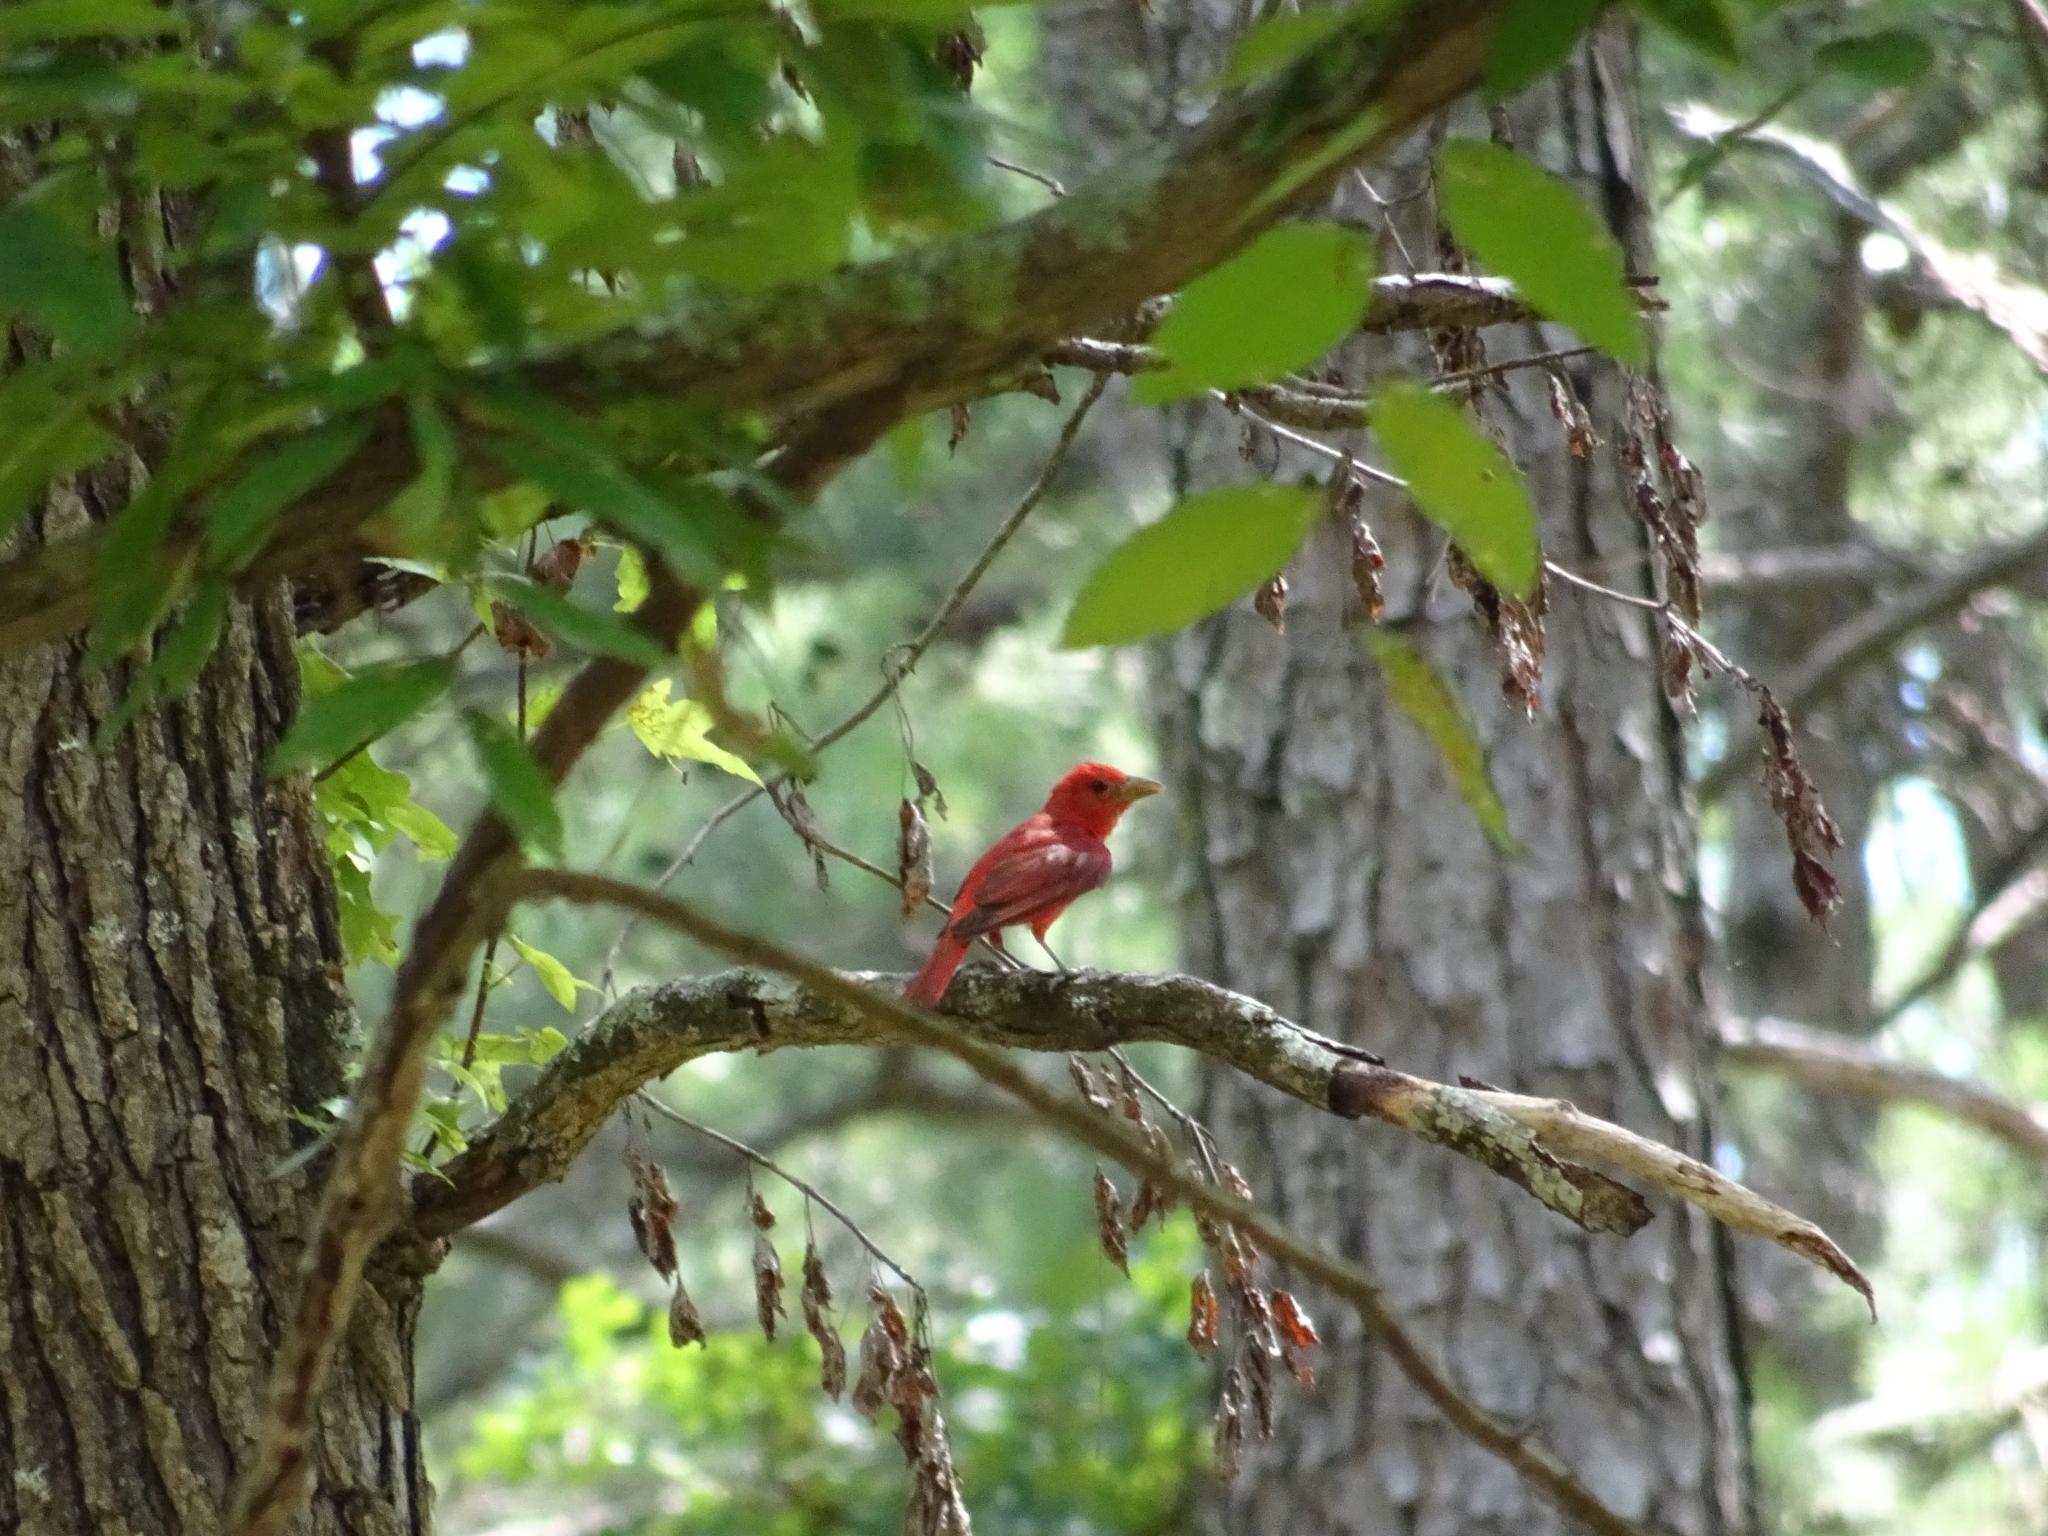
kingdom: Animalia
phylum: Chordata
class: Aves
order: Passeriformes
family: Cardinalidae
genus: Piranga
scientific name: Piranga rubra
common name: Summer tanager
